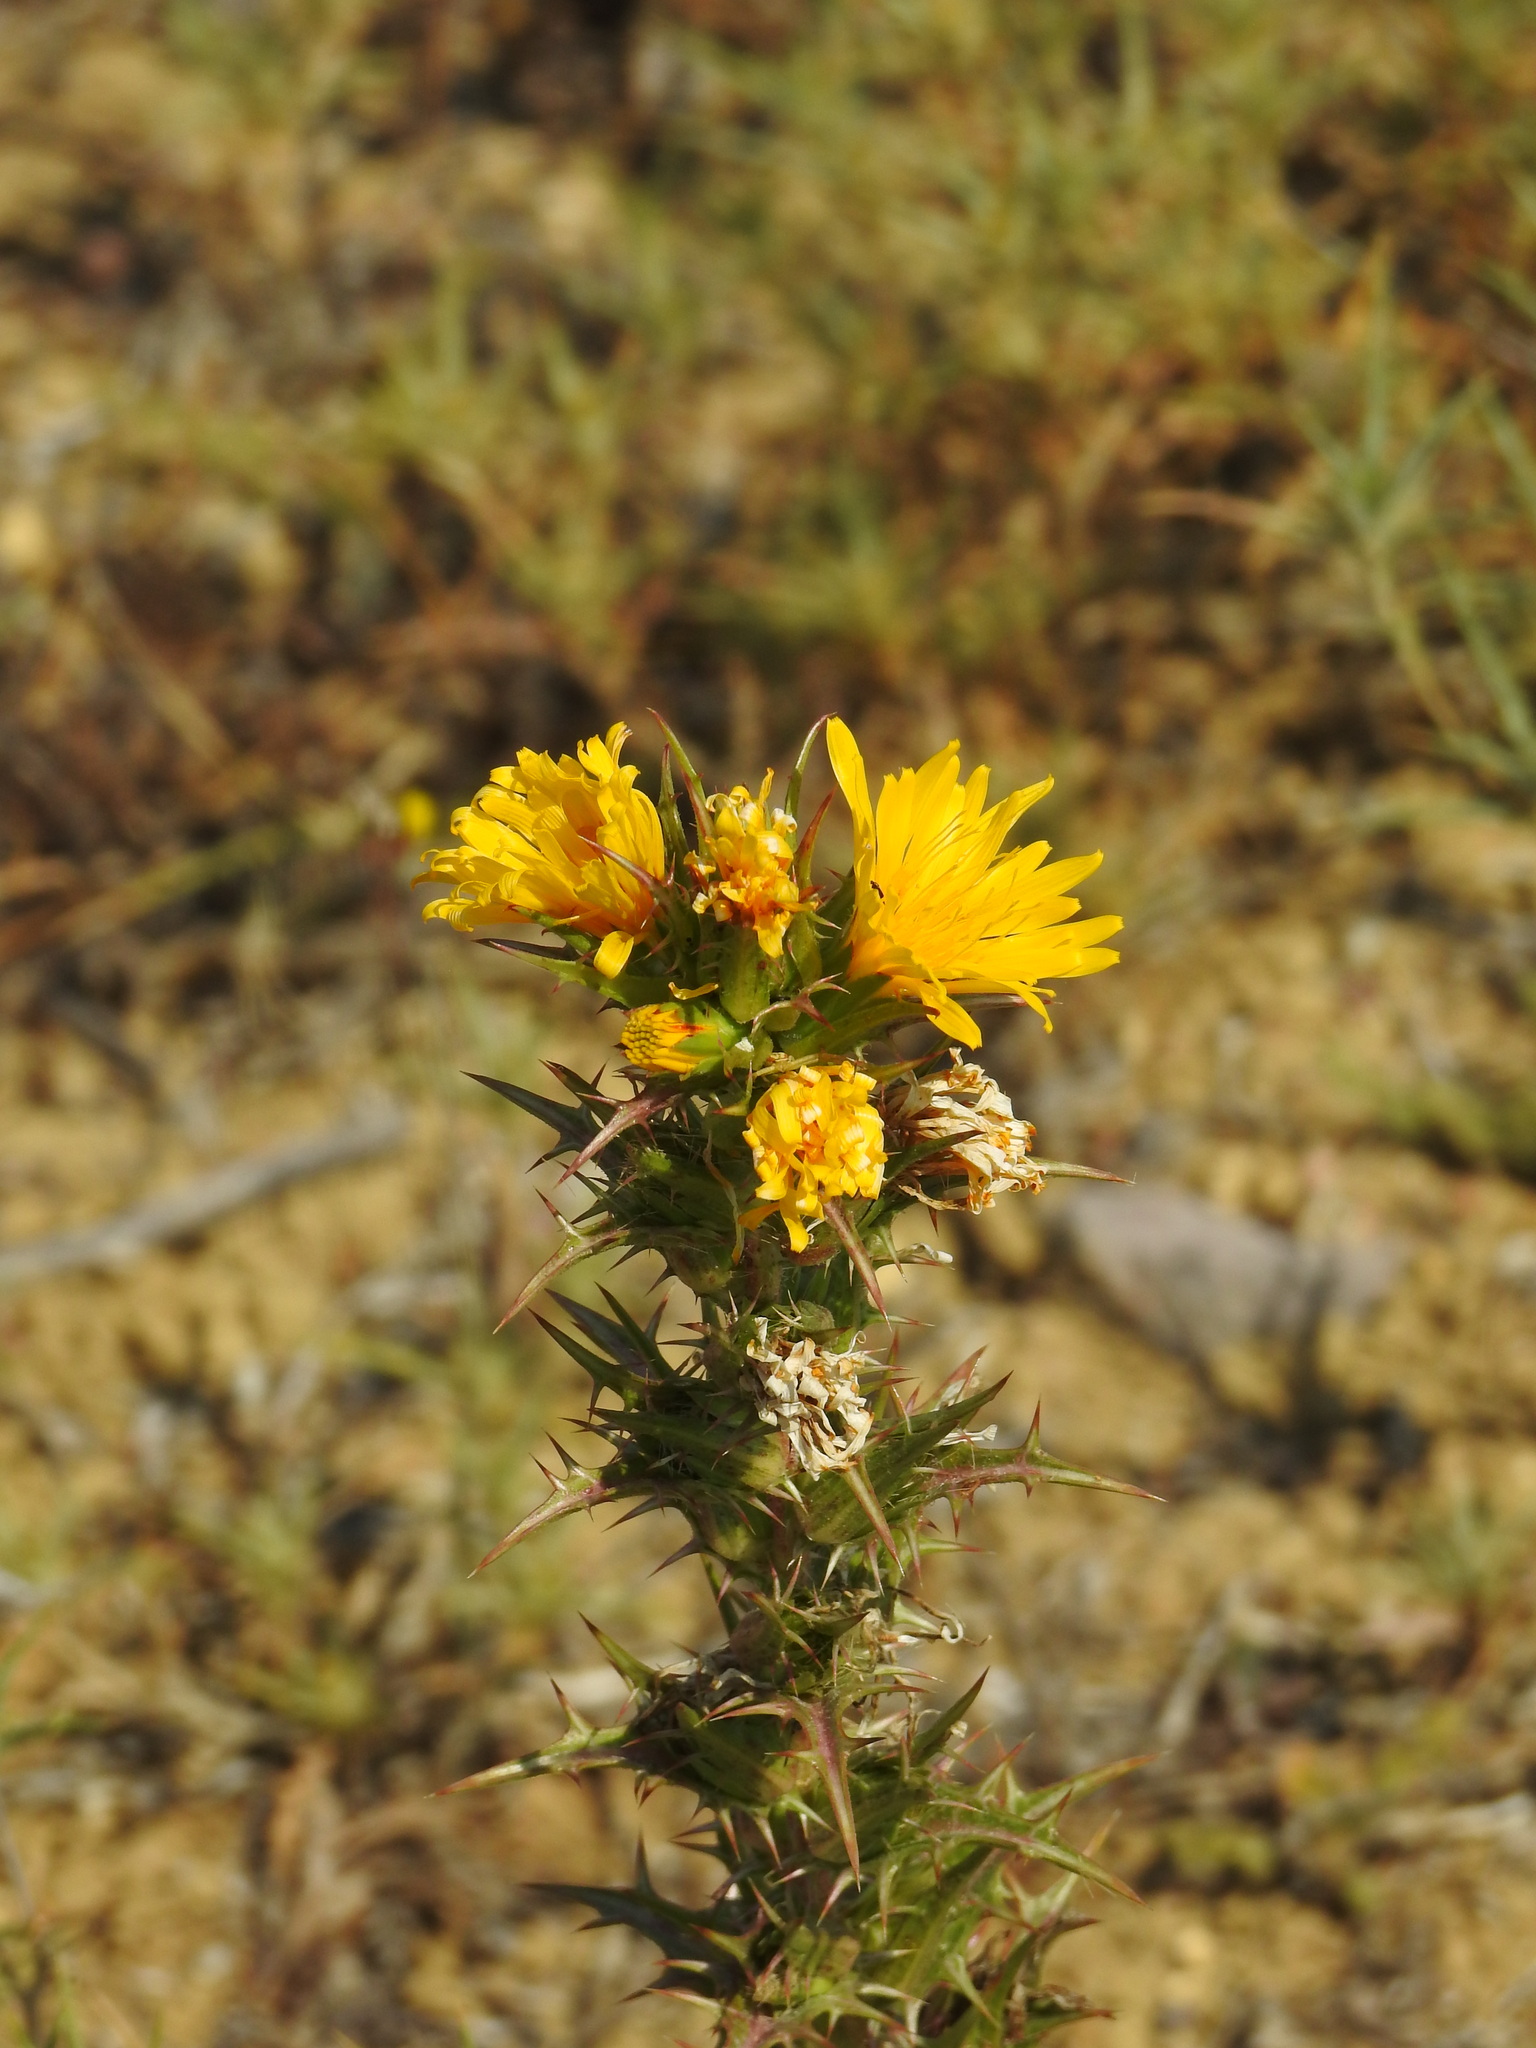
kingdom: Plantae
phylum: Tracheophyta
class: Magnoliopsida
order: Asterales
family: Asteraceae
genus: Scolymus
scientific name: Scolymus hispanicus
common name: Golden thistle
